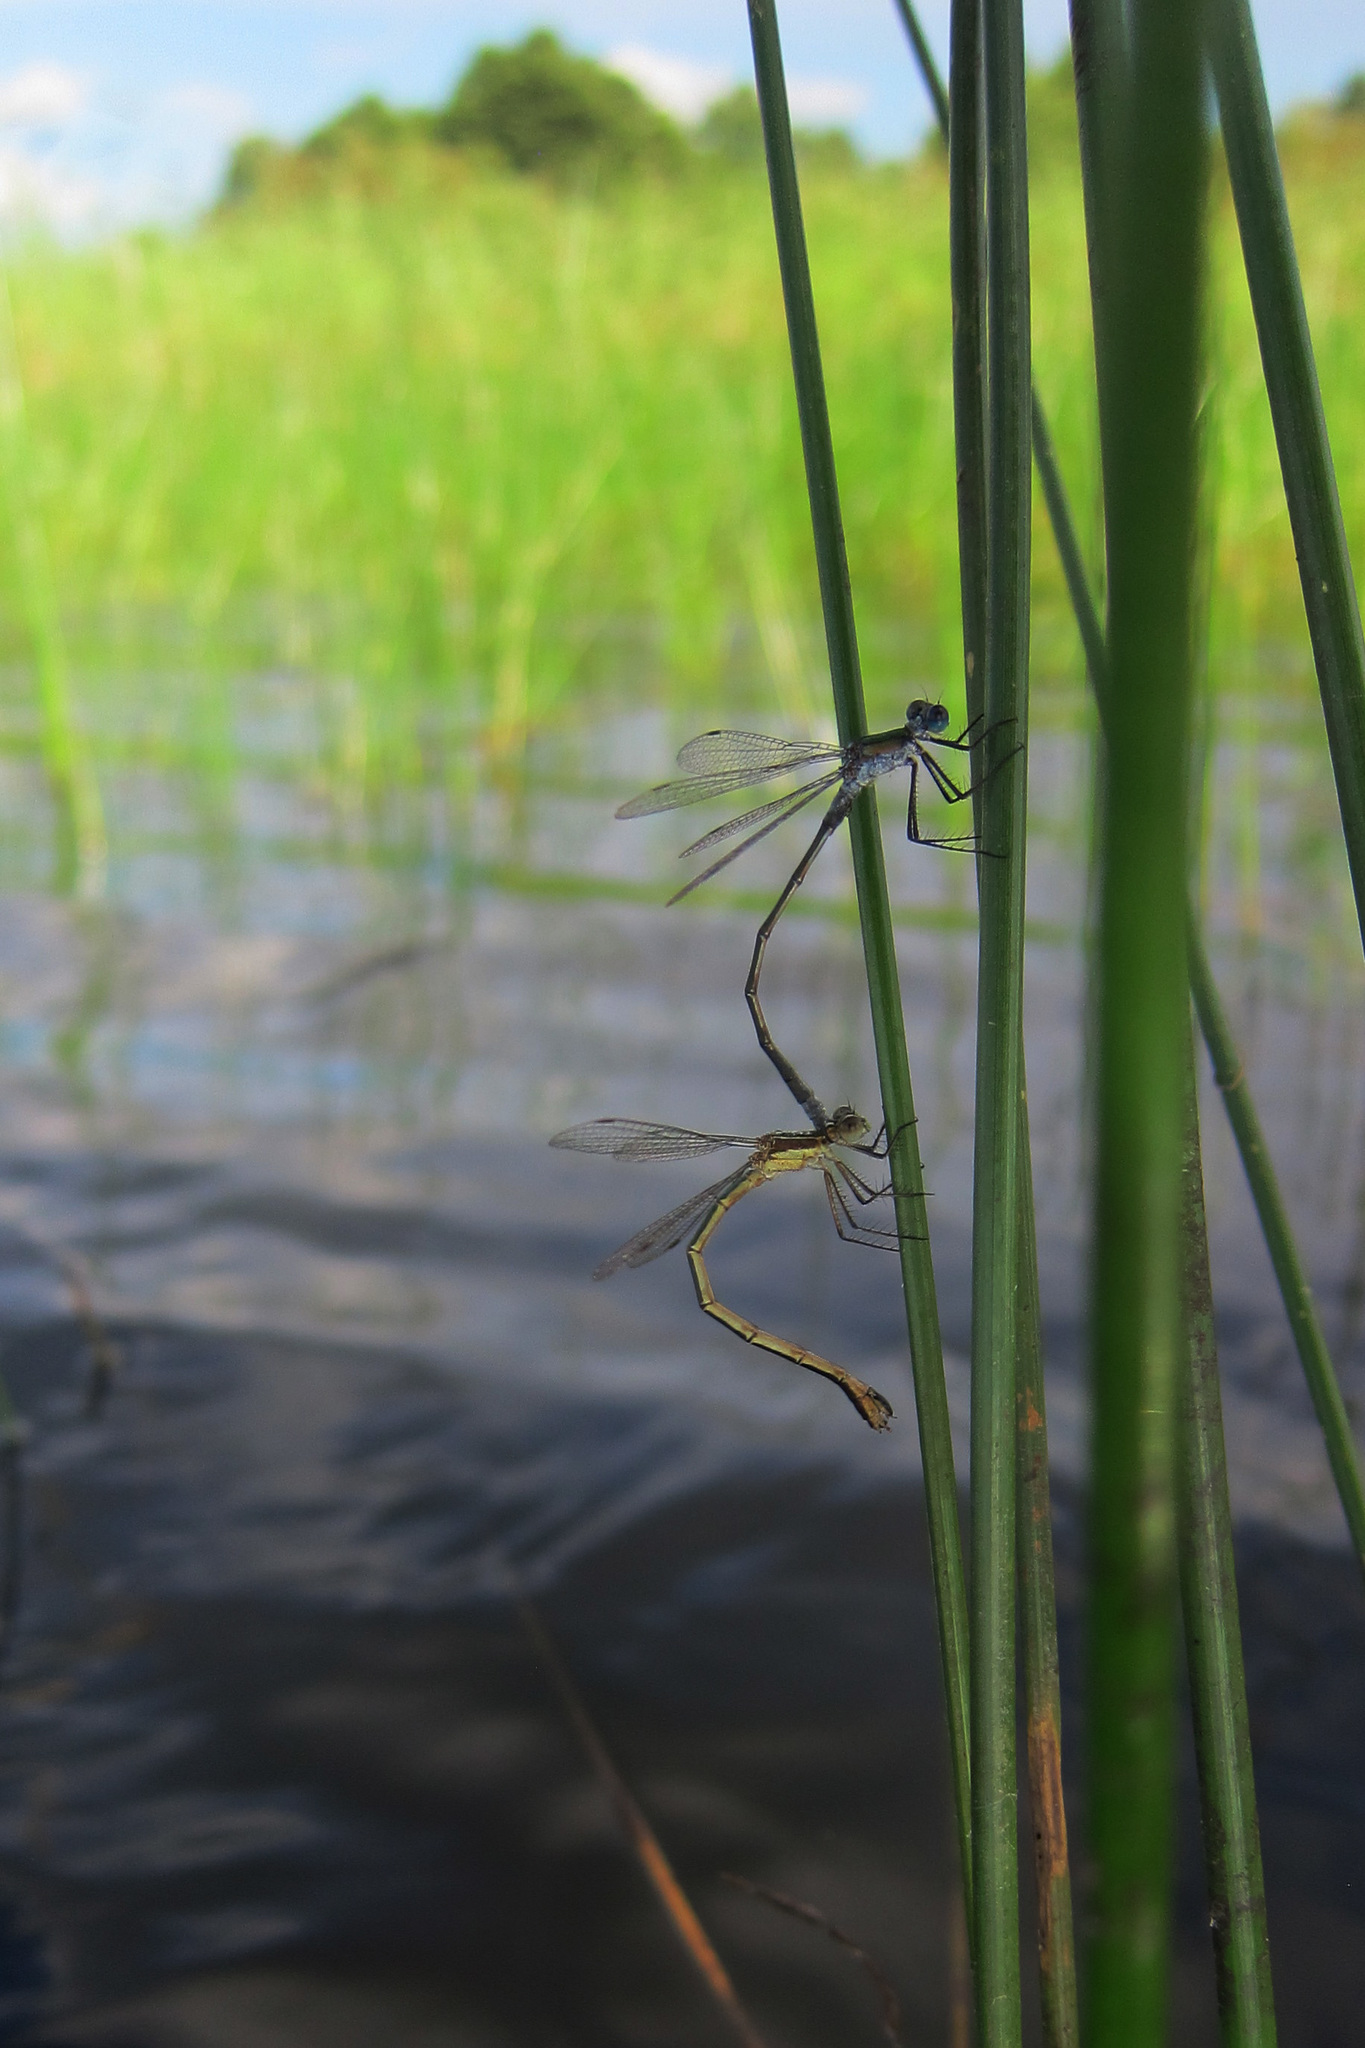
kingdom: Animalia
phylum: Arthropoda
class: Insecta
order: Odonata
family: Lestidae
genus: Lestes
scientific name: Lestes sponsa
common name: Common spreadwing
